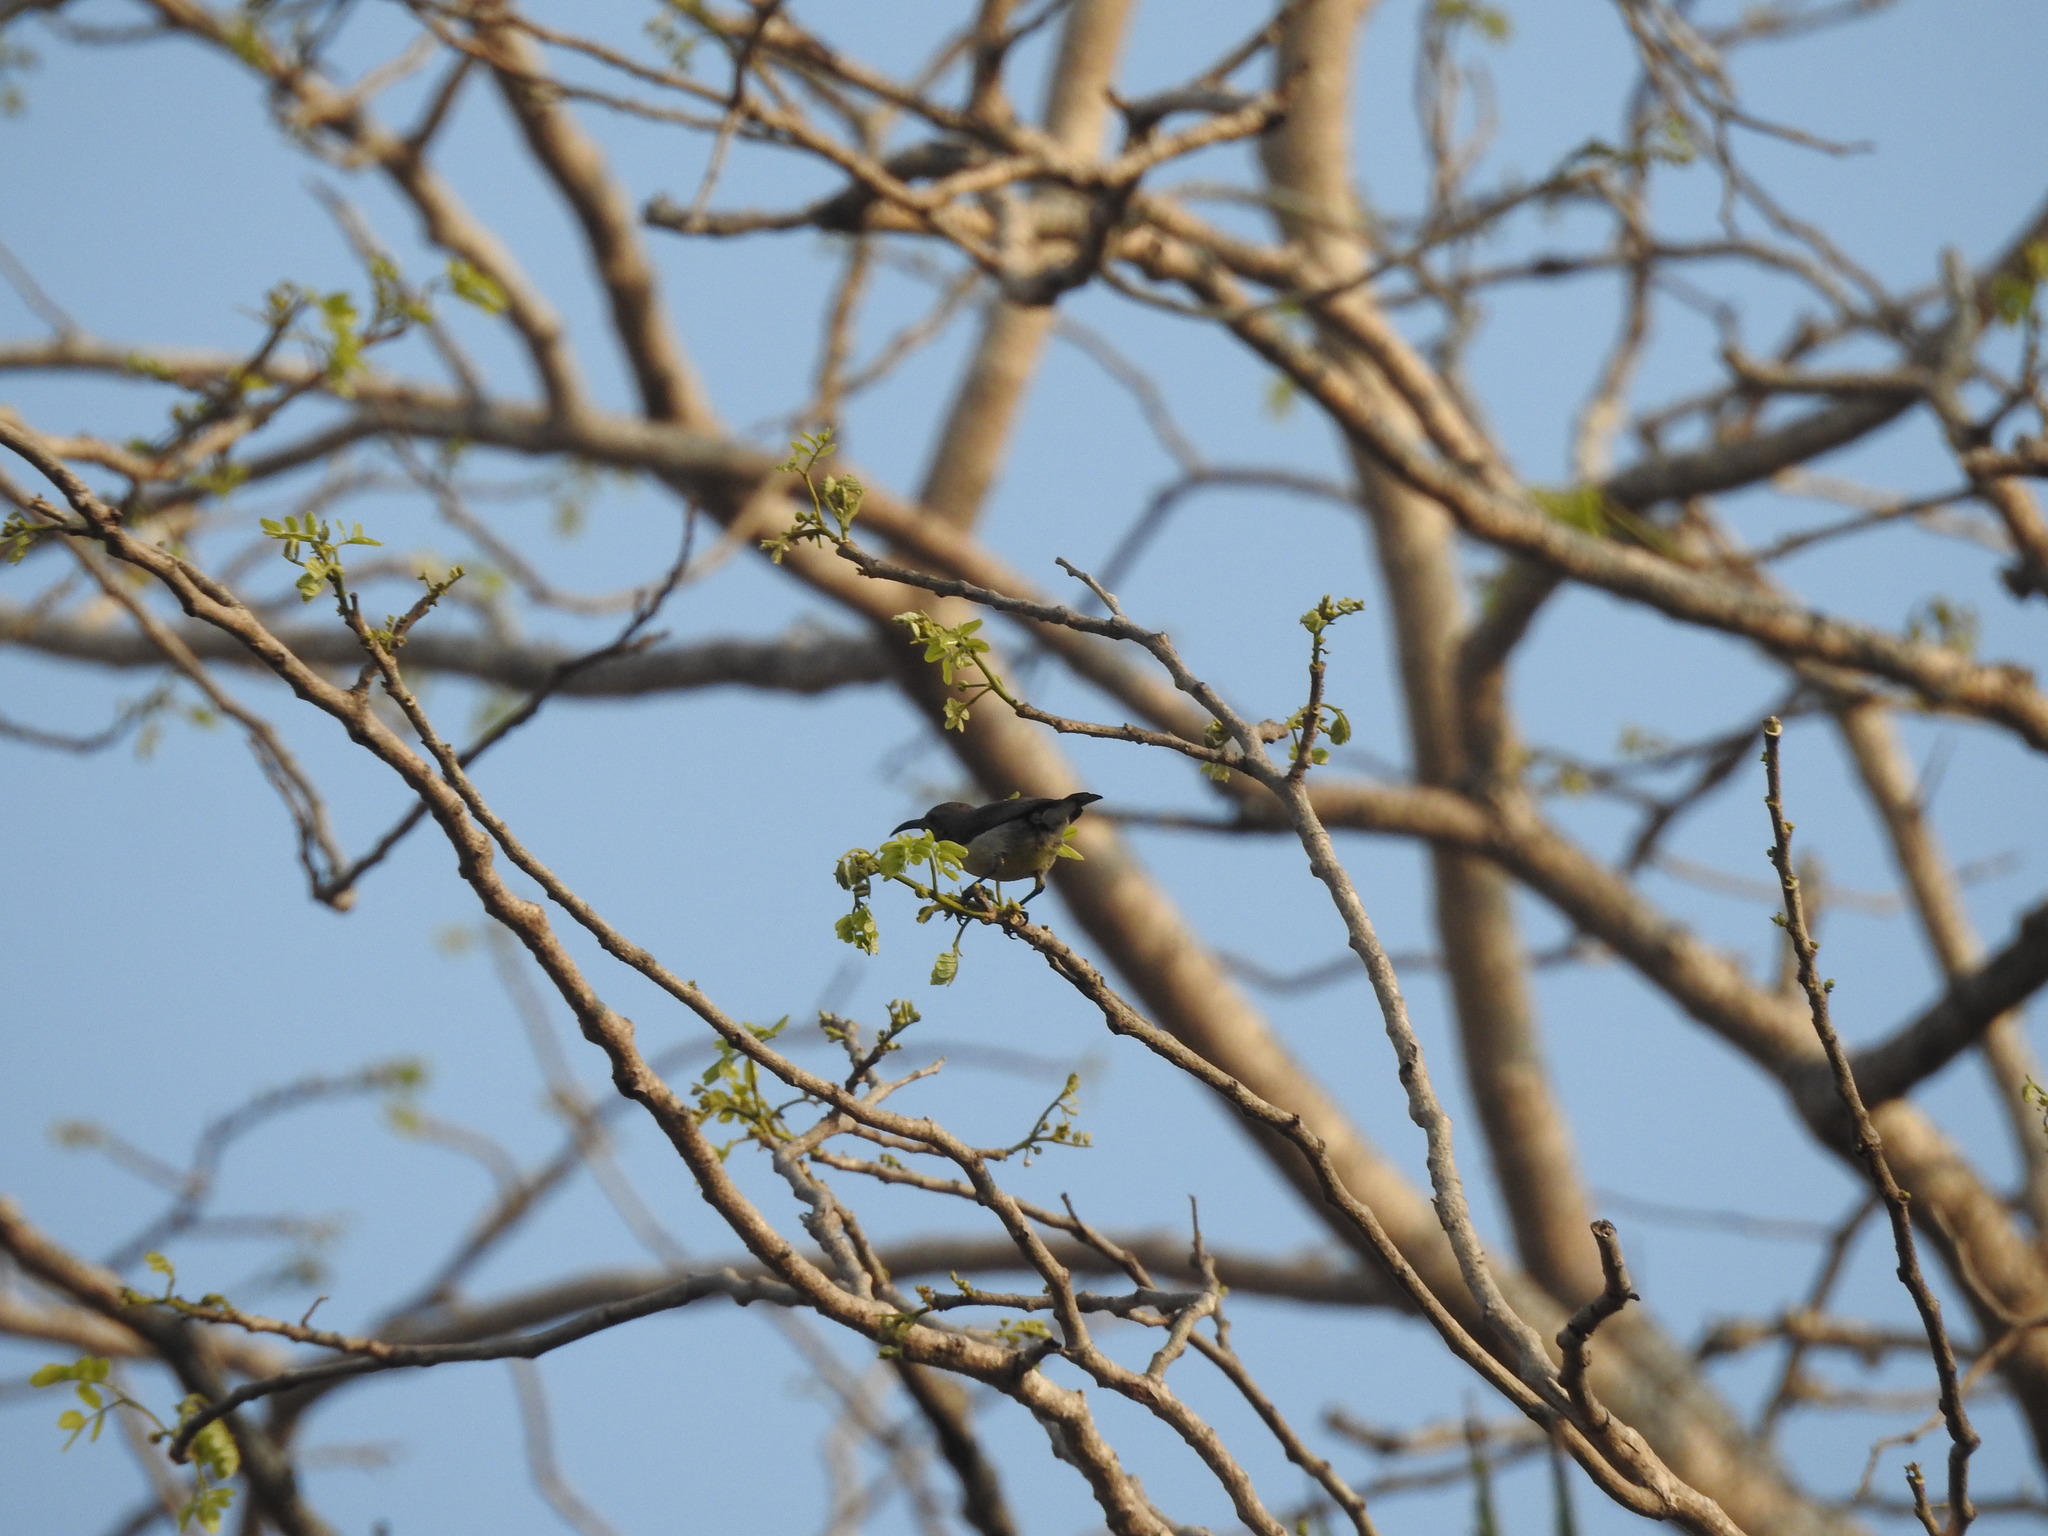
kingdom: Animalia
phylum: Chordata
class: Aves
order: Passeriformes
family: Nectariniidae
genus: Leptocoma
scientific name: Leptocoma zeylonica
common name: Purple-rumped sunbird
